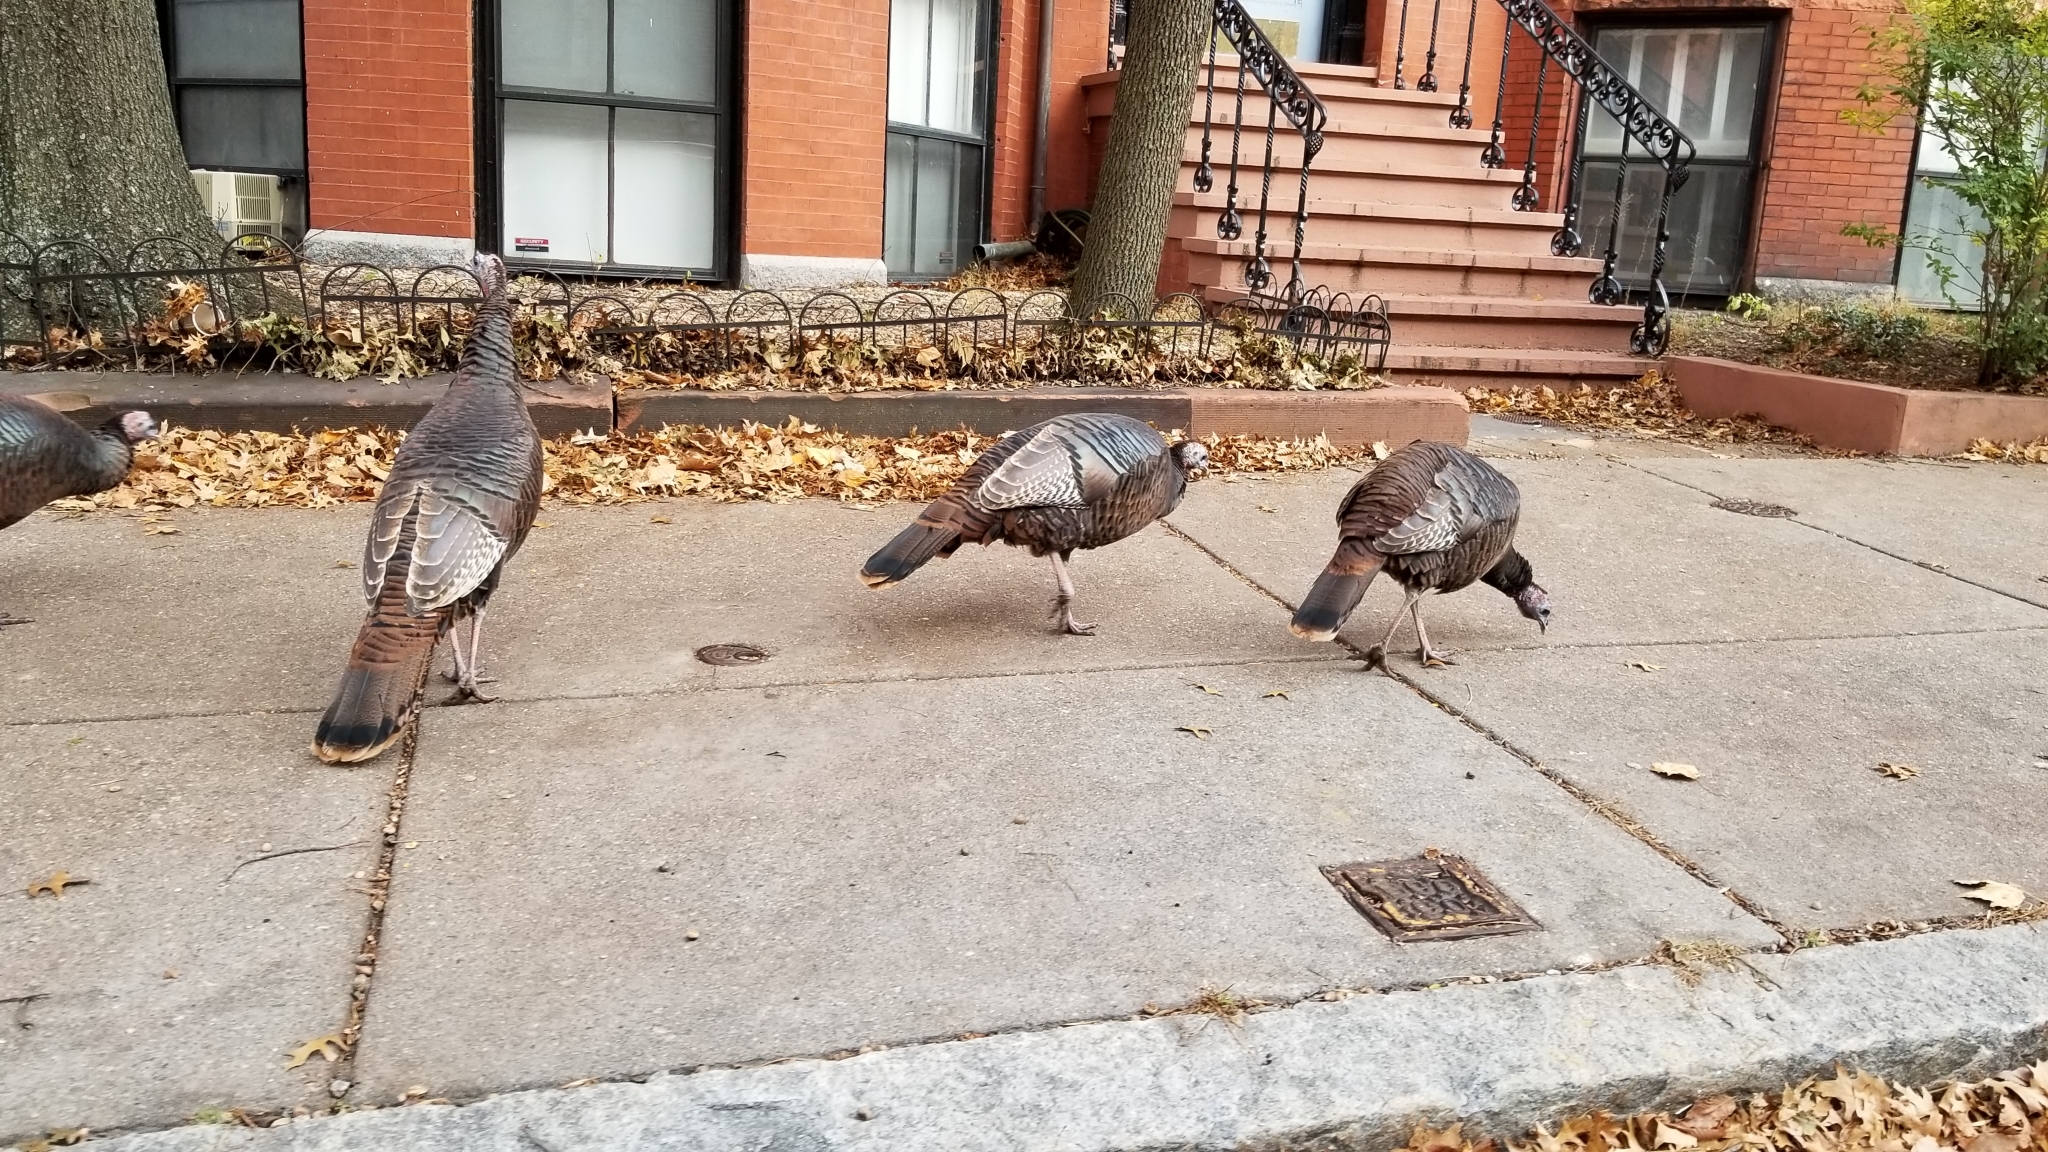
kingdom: Animalia
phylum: Chordata
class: Aves
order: Galliformes
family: Phasianidae
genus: Meleagris
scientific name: Meleagris gallopavo
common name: Wild turkey
